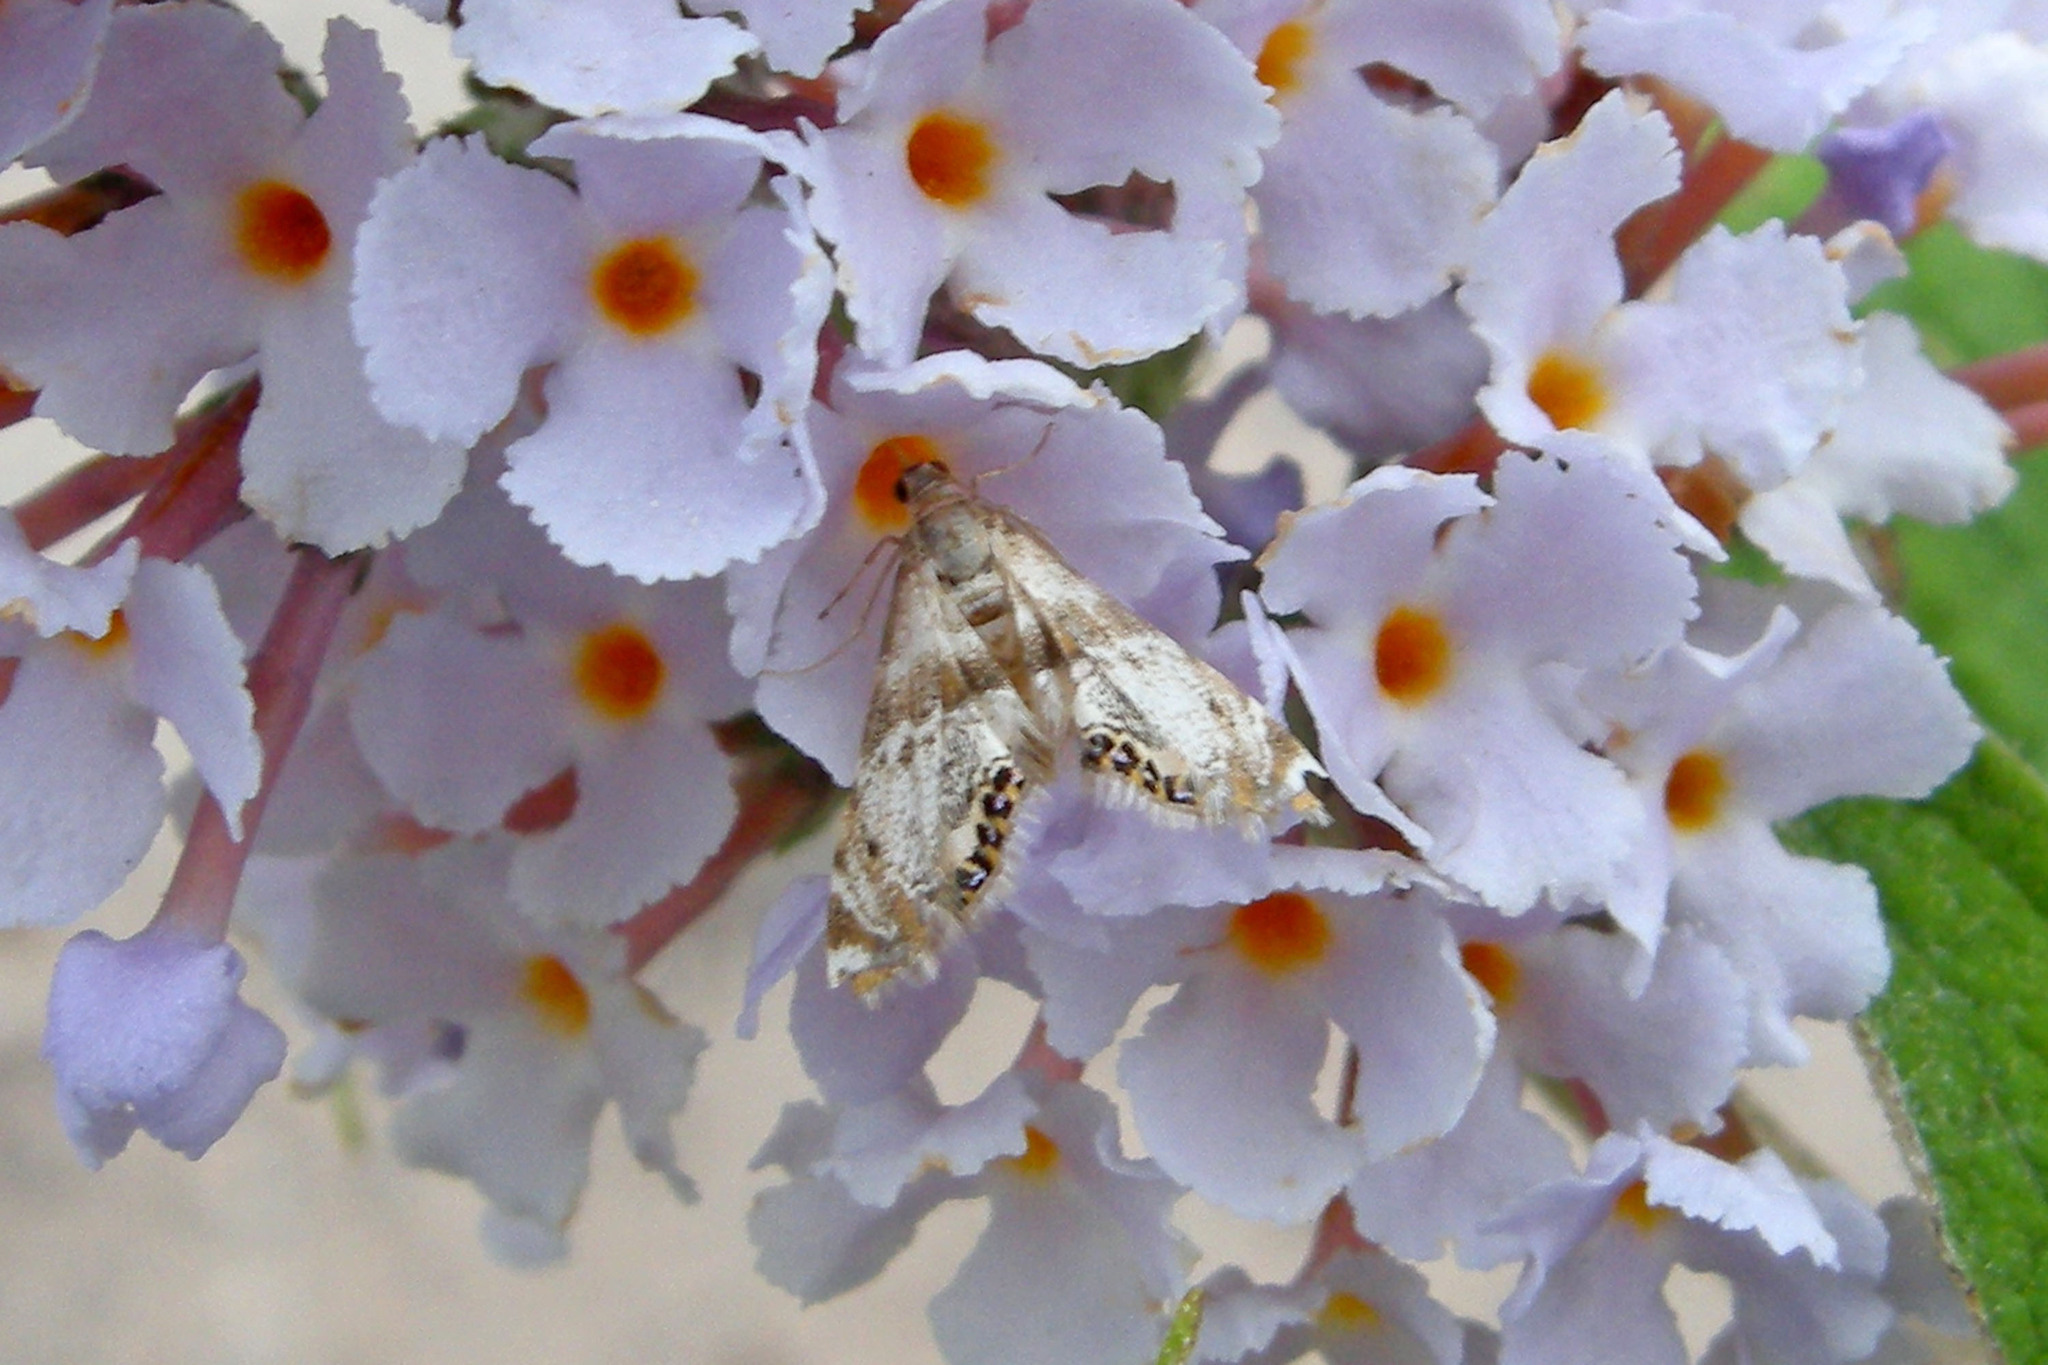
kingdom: Animalia
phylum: Arthropoda
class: Insecta
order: Lepidoptera
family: Crambidae
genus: Petrophila
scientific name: Petrophila fulicalis
